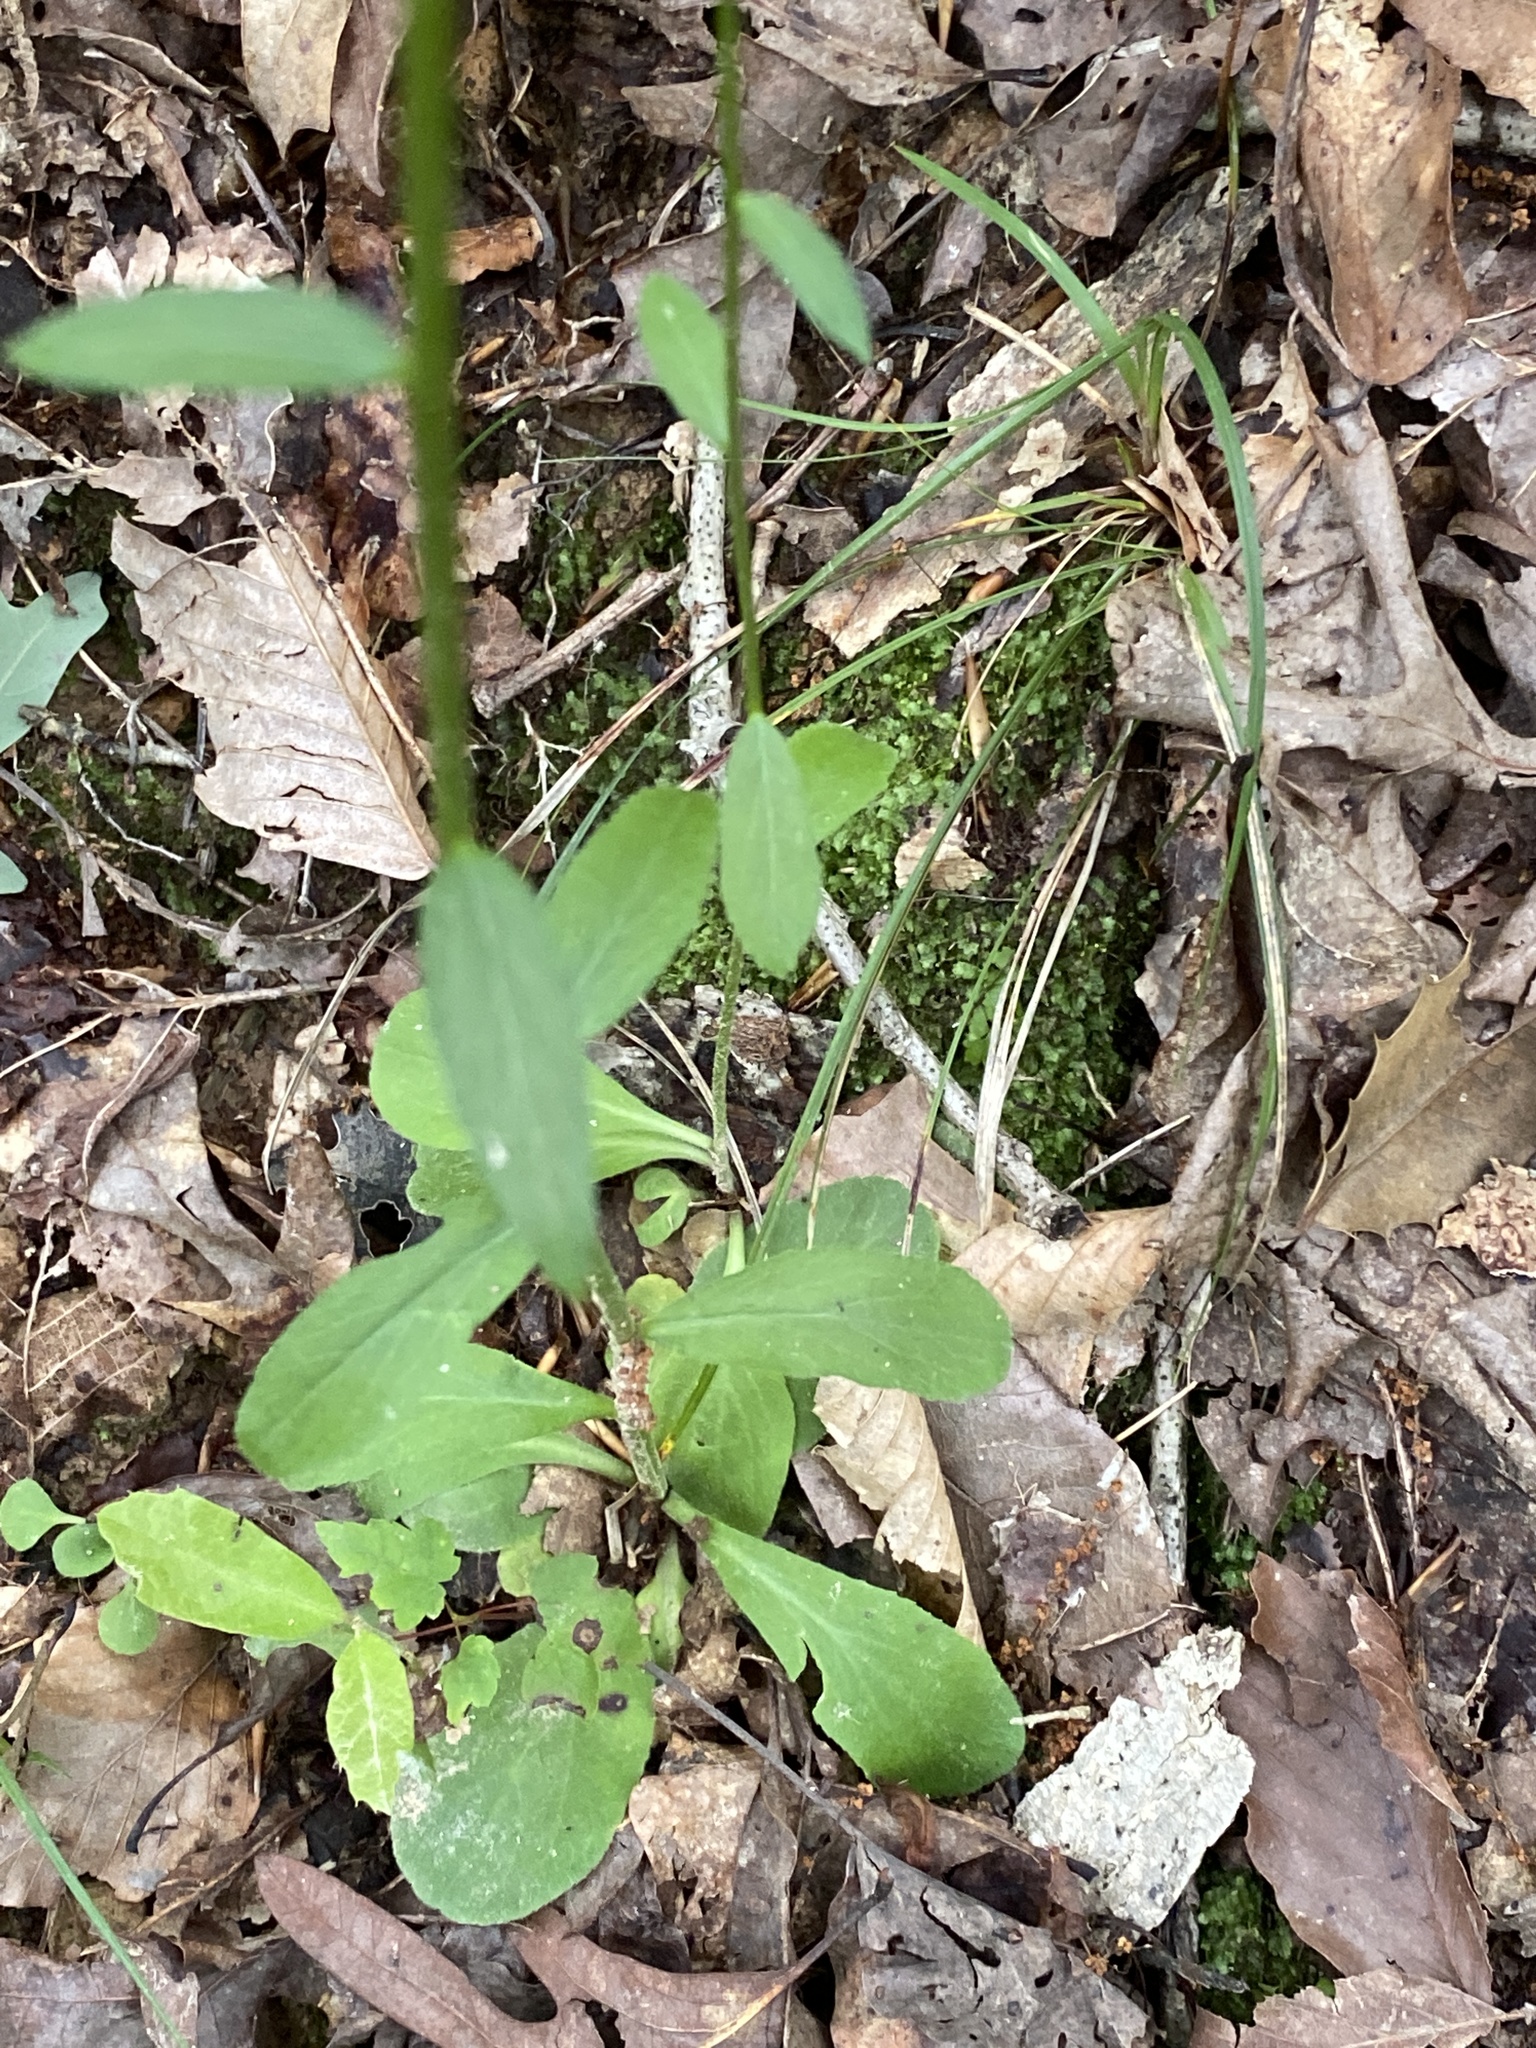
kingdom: Plantae
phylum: Tracheophyta
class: Magnoliopsida
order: Asterales
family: Campanulaceae
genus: Lobelia
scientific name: Lobelia spicata
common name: Pale-spike lobelia
